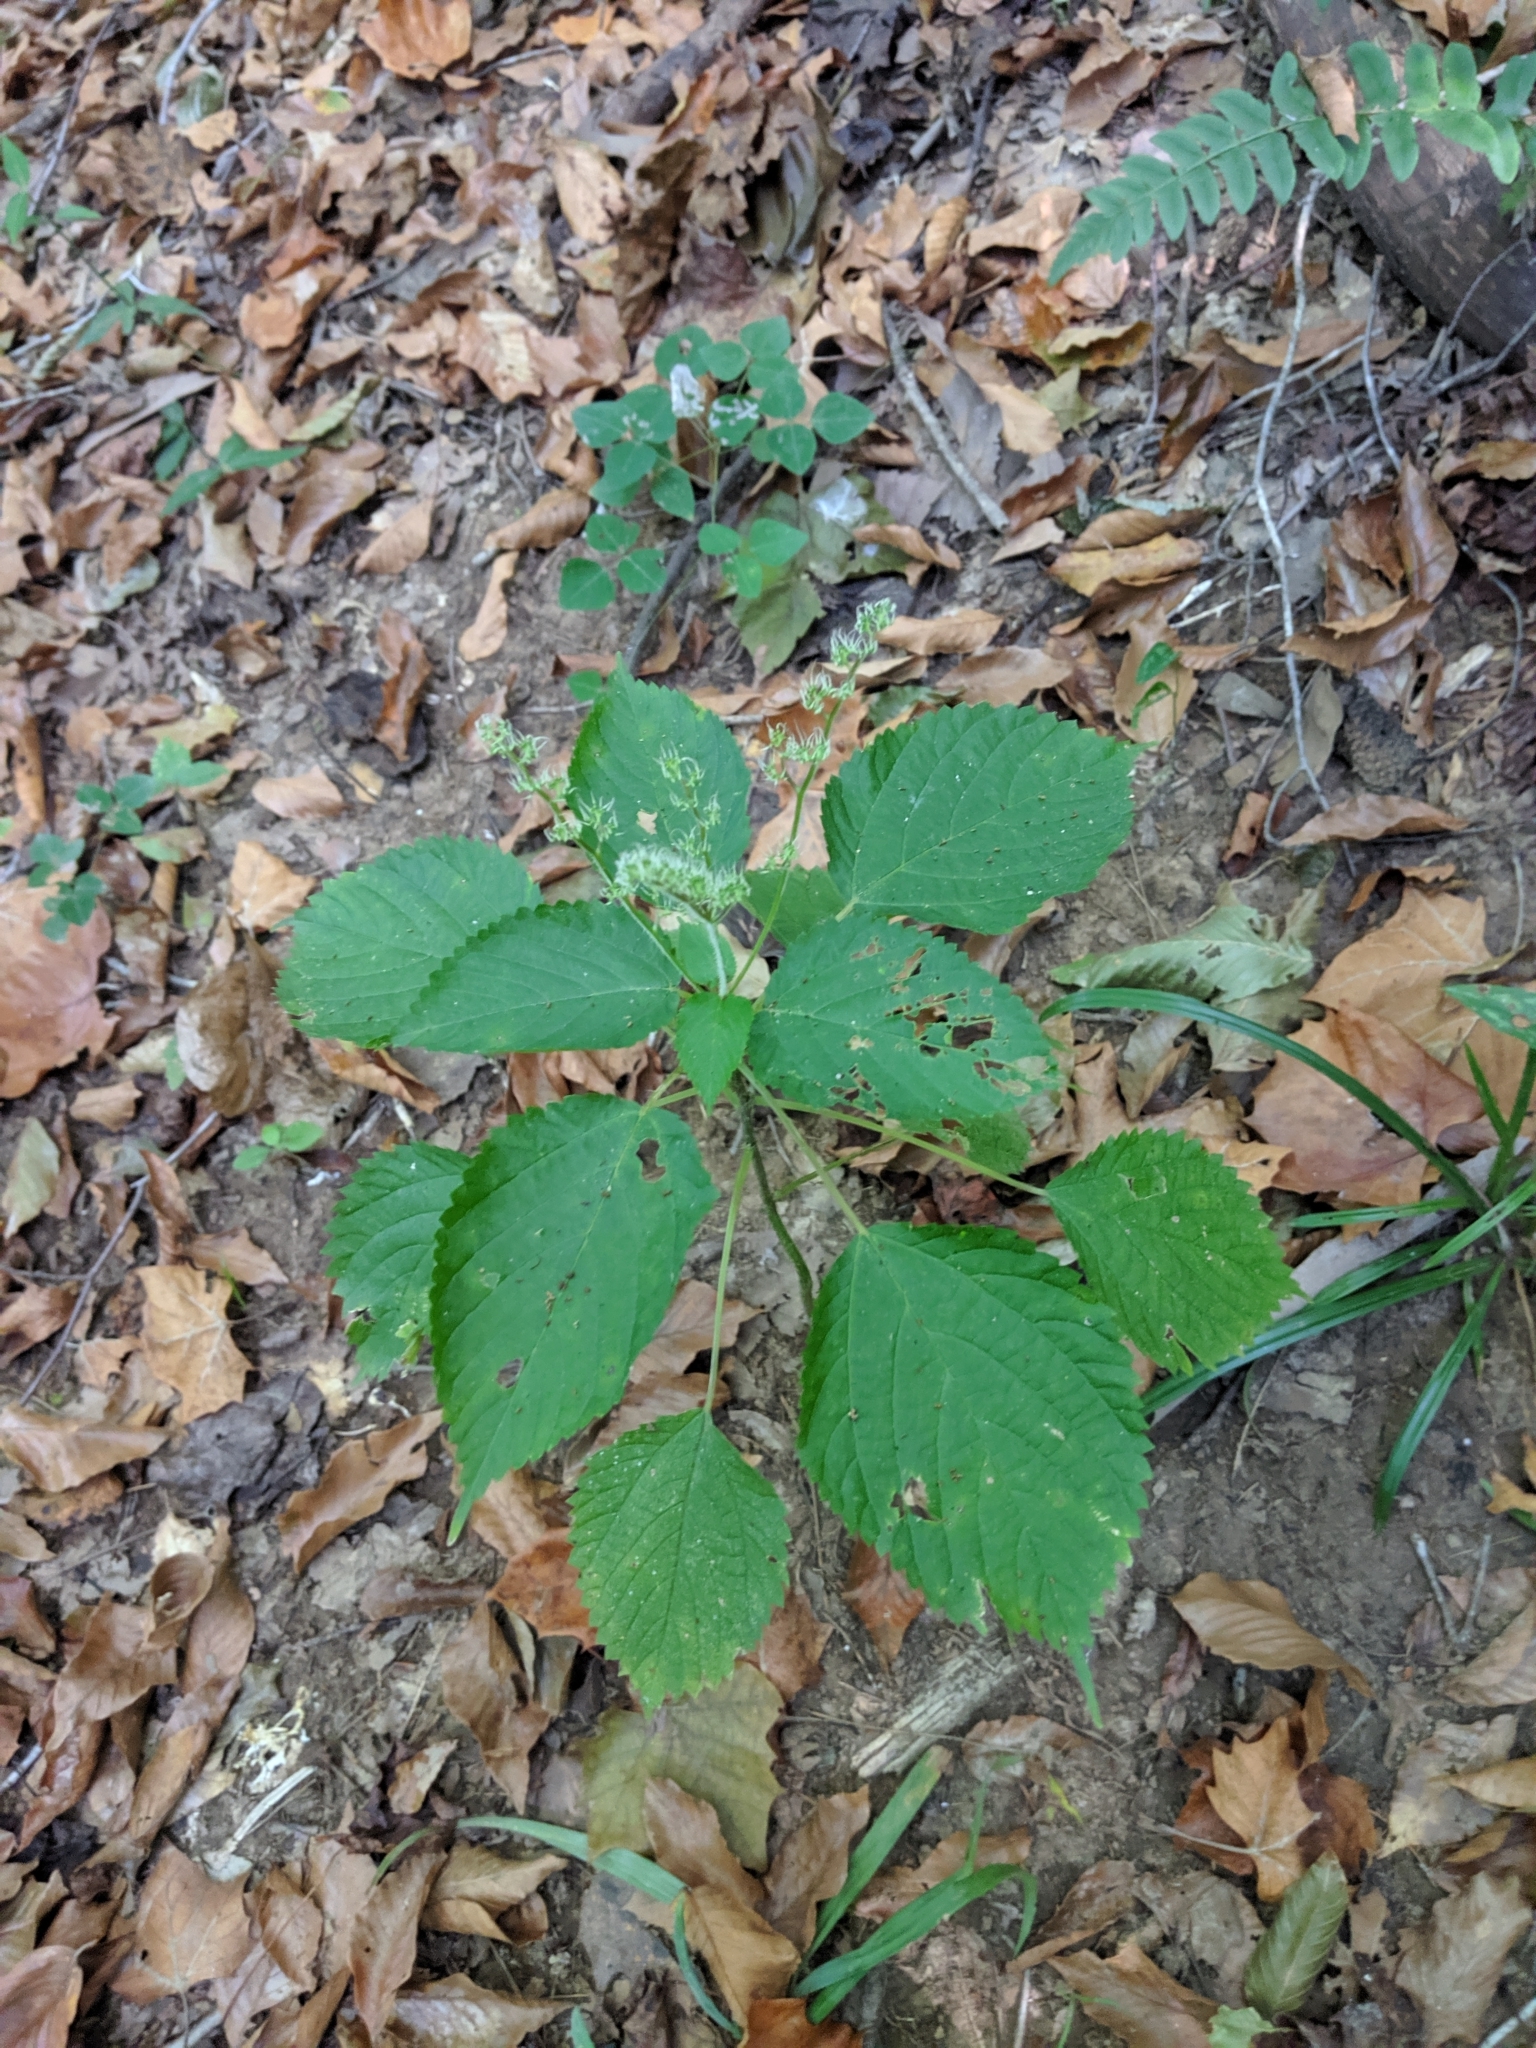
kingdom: Plantae
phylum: Tracheophyta
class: Magnoliopsida
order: Rosales
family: Urticaceae
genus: Laportea
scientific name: Laportea canadensis
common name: Canada nettle
